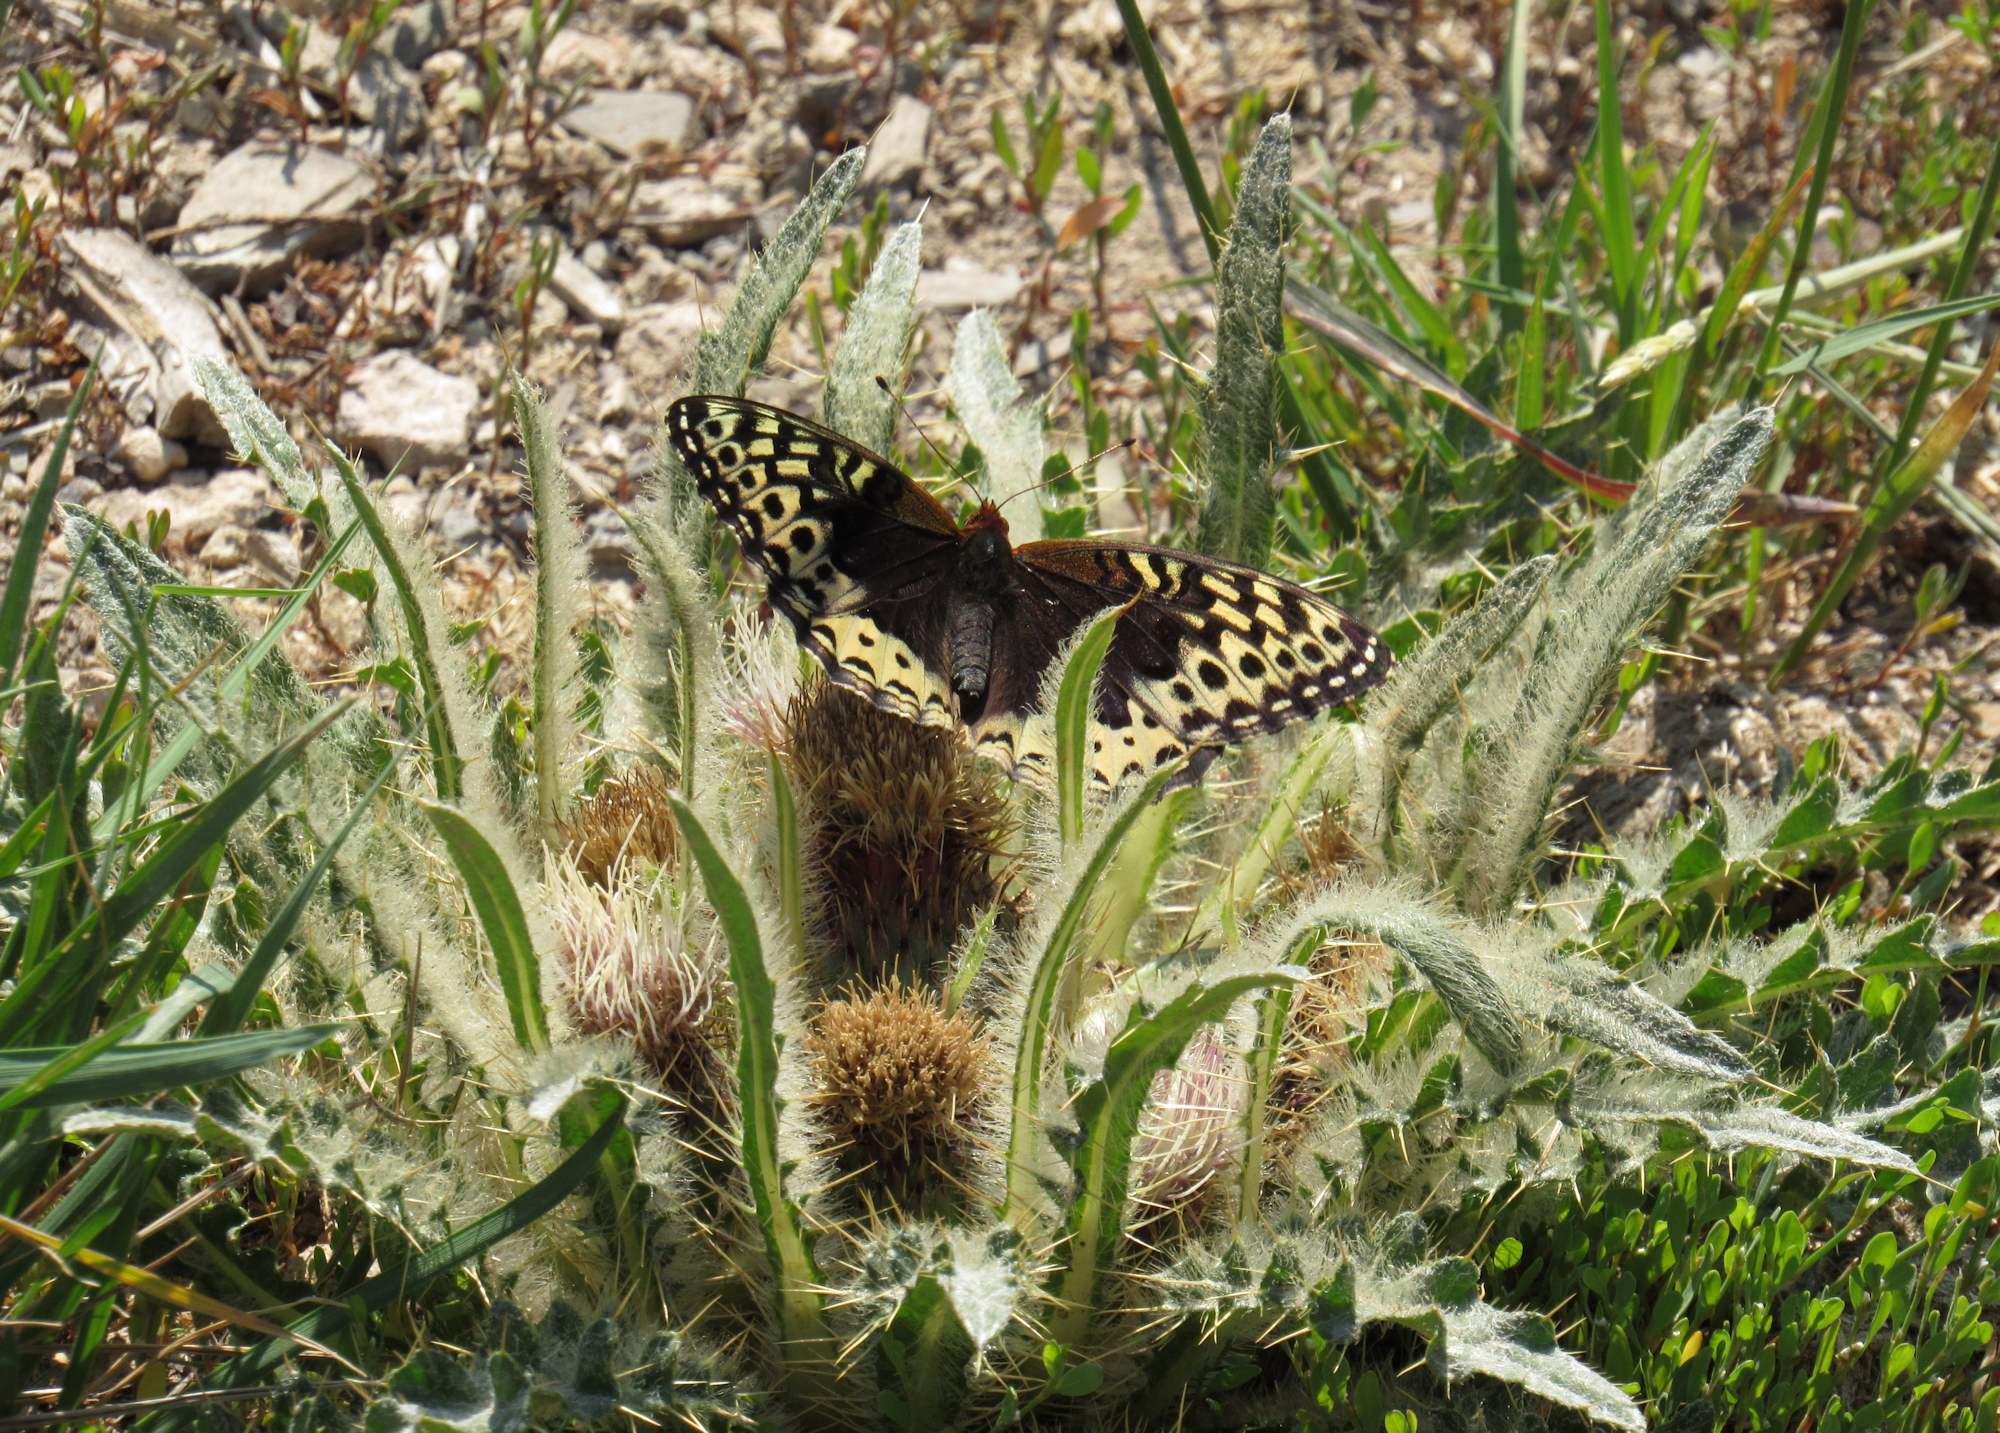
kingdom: Animalia
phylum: Arthropoda
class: Insecta
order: Lepidoptera
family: Nymphalidae
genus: Speyeria
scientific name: Speyeria cybele
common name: Great spangled fritillary
